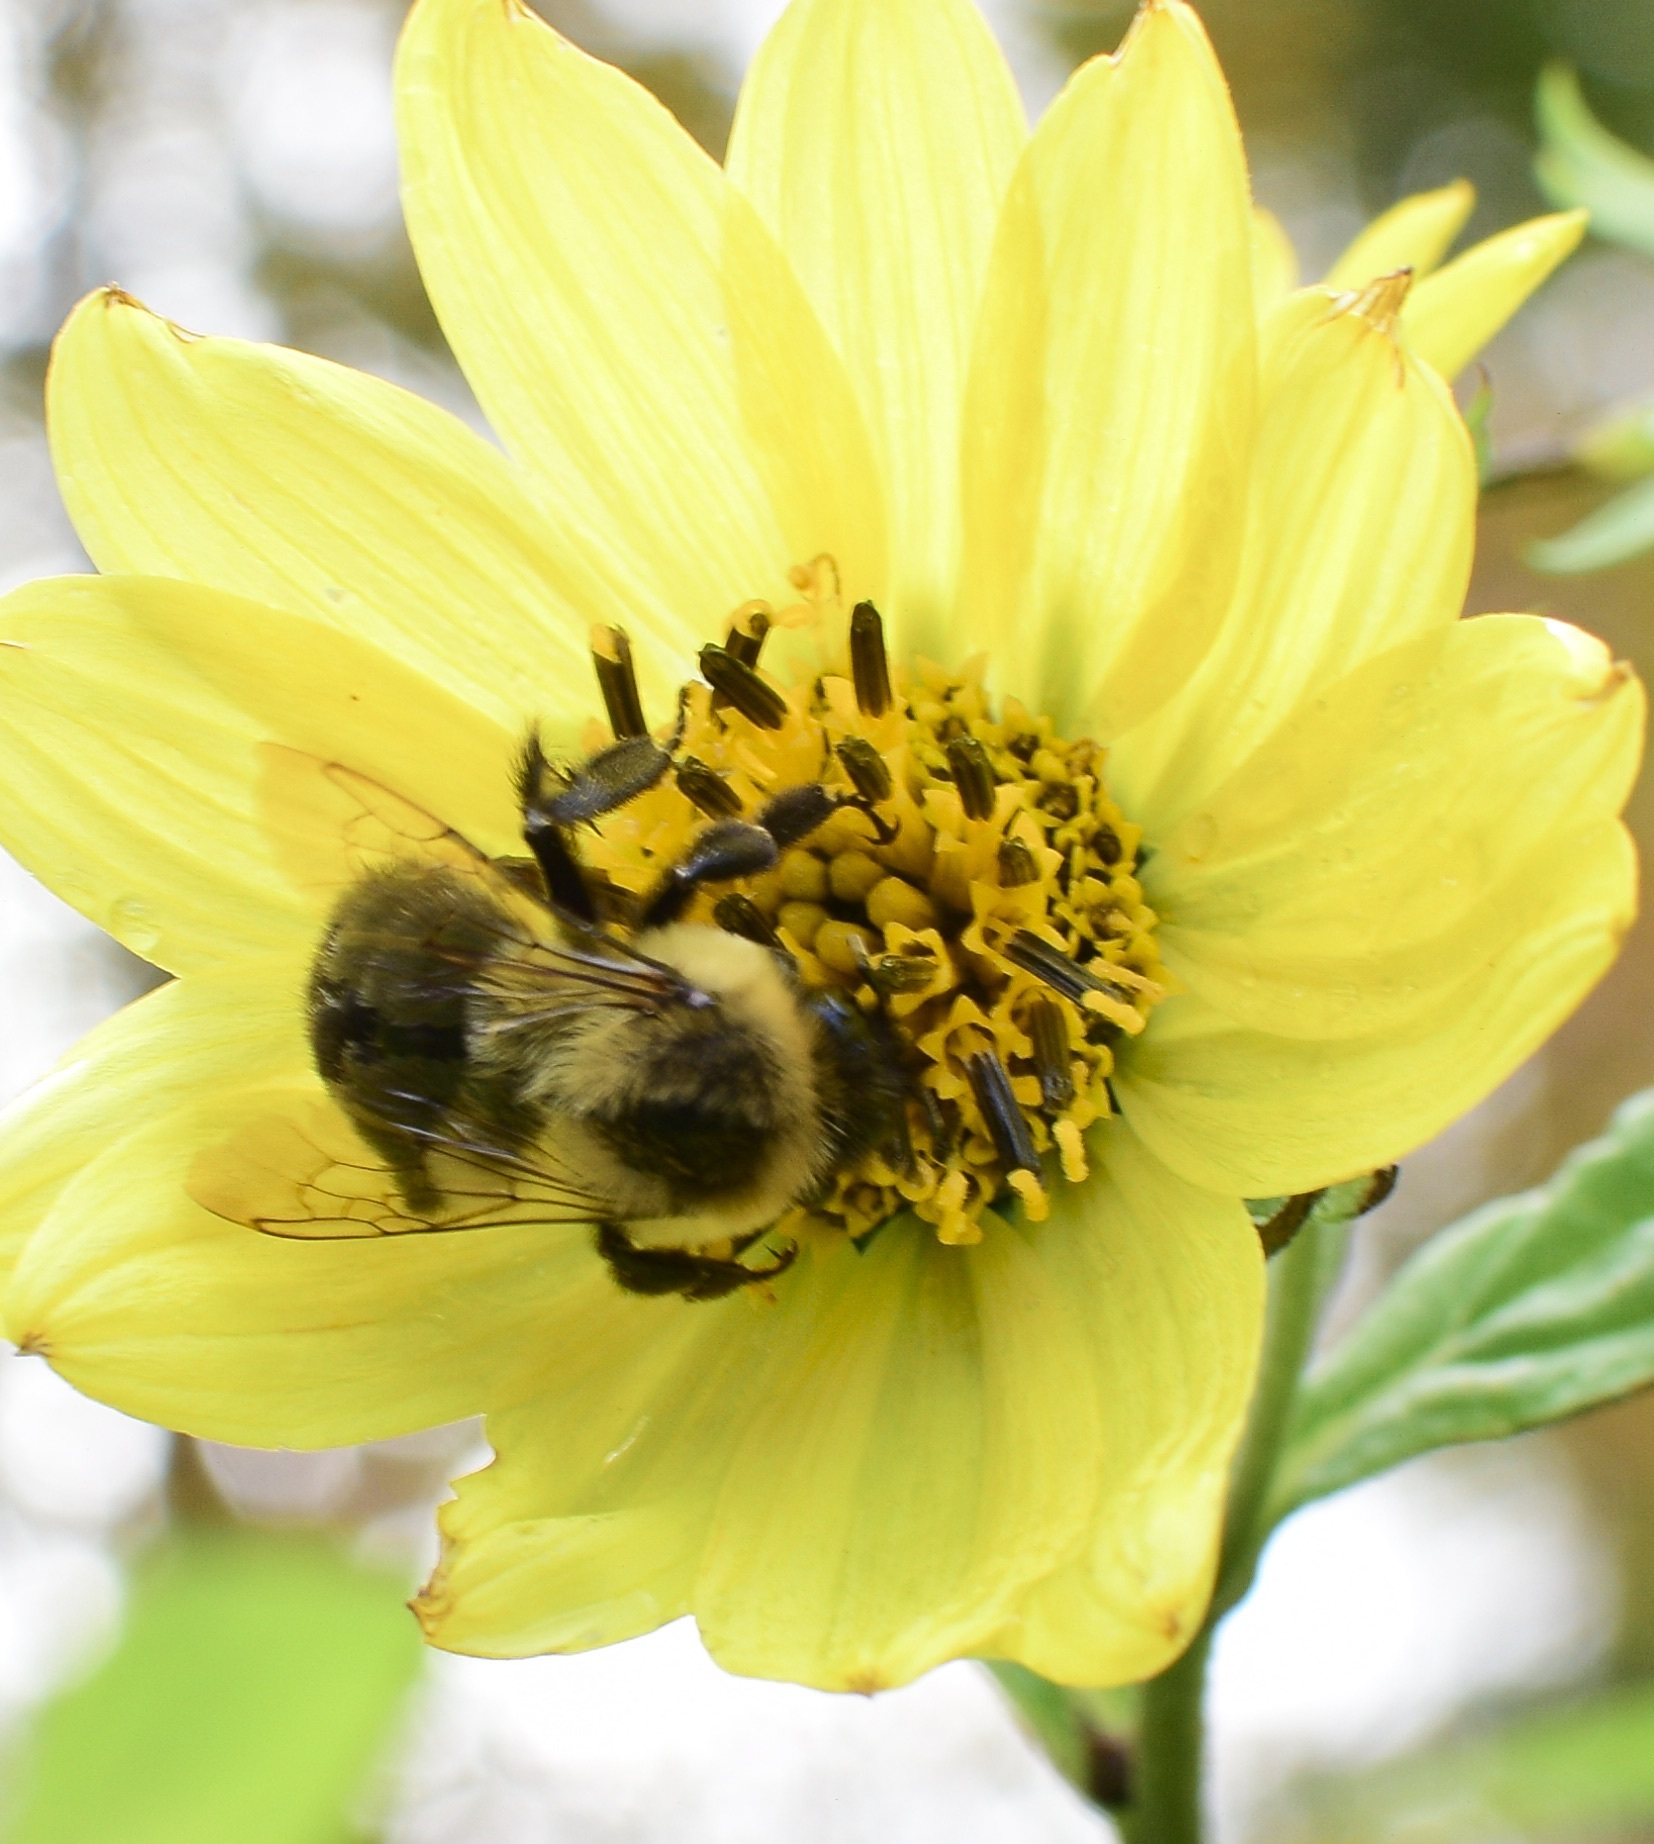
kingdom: Animalia
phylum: Arthropoda
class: Insecta
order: Hymenoptera
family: Apidae
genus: Bombus
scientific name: Bombus impatiens
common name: Common eastern bumble bee
